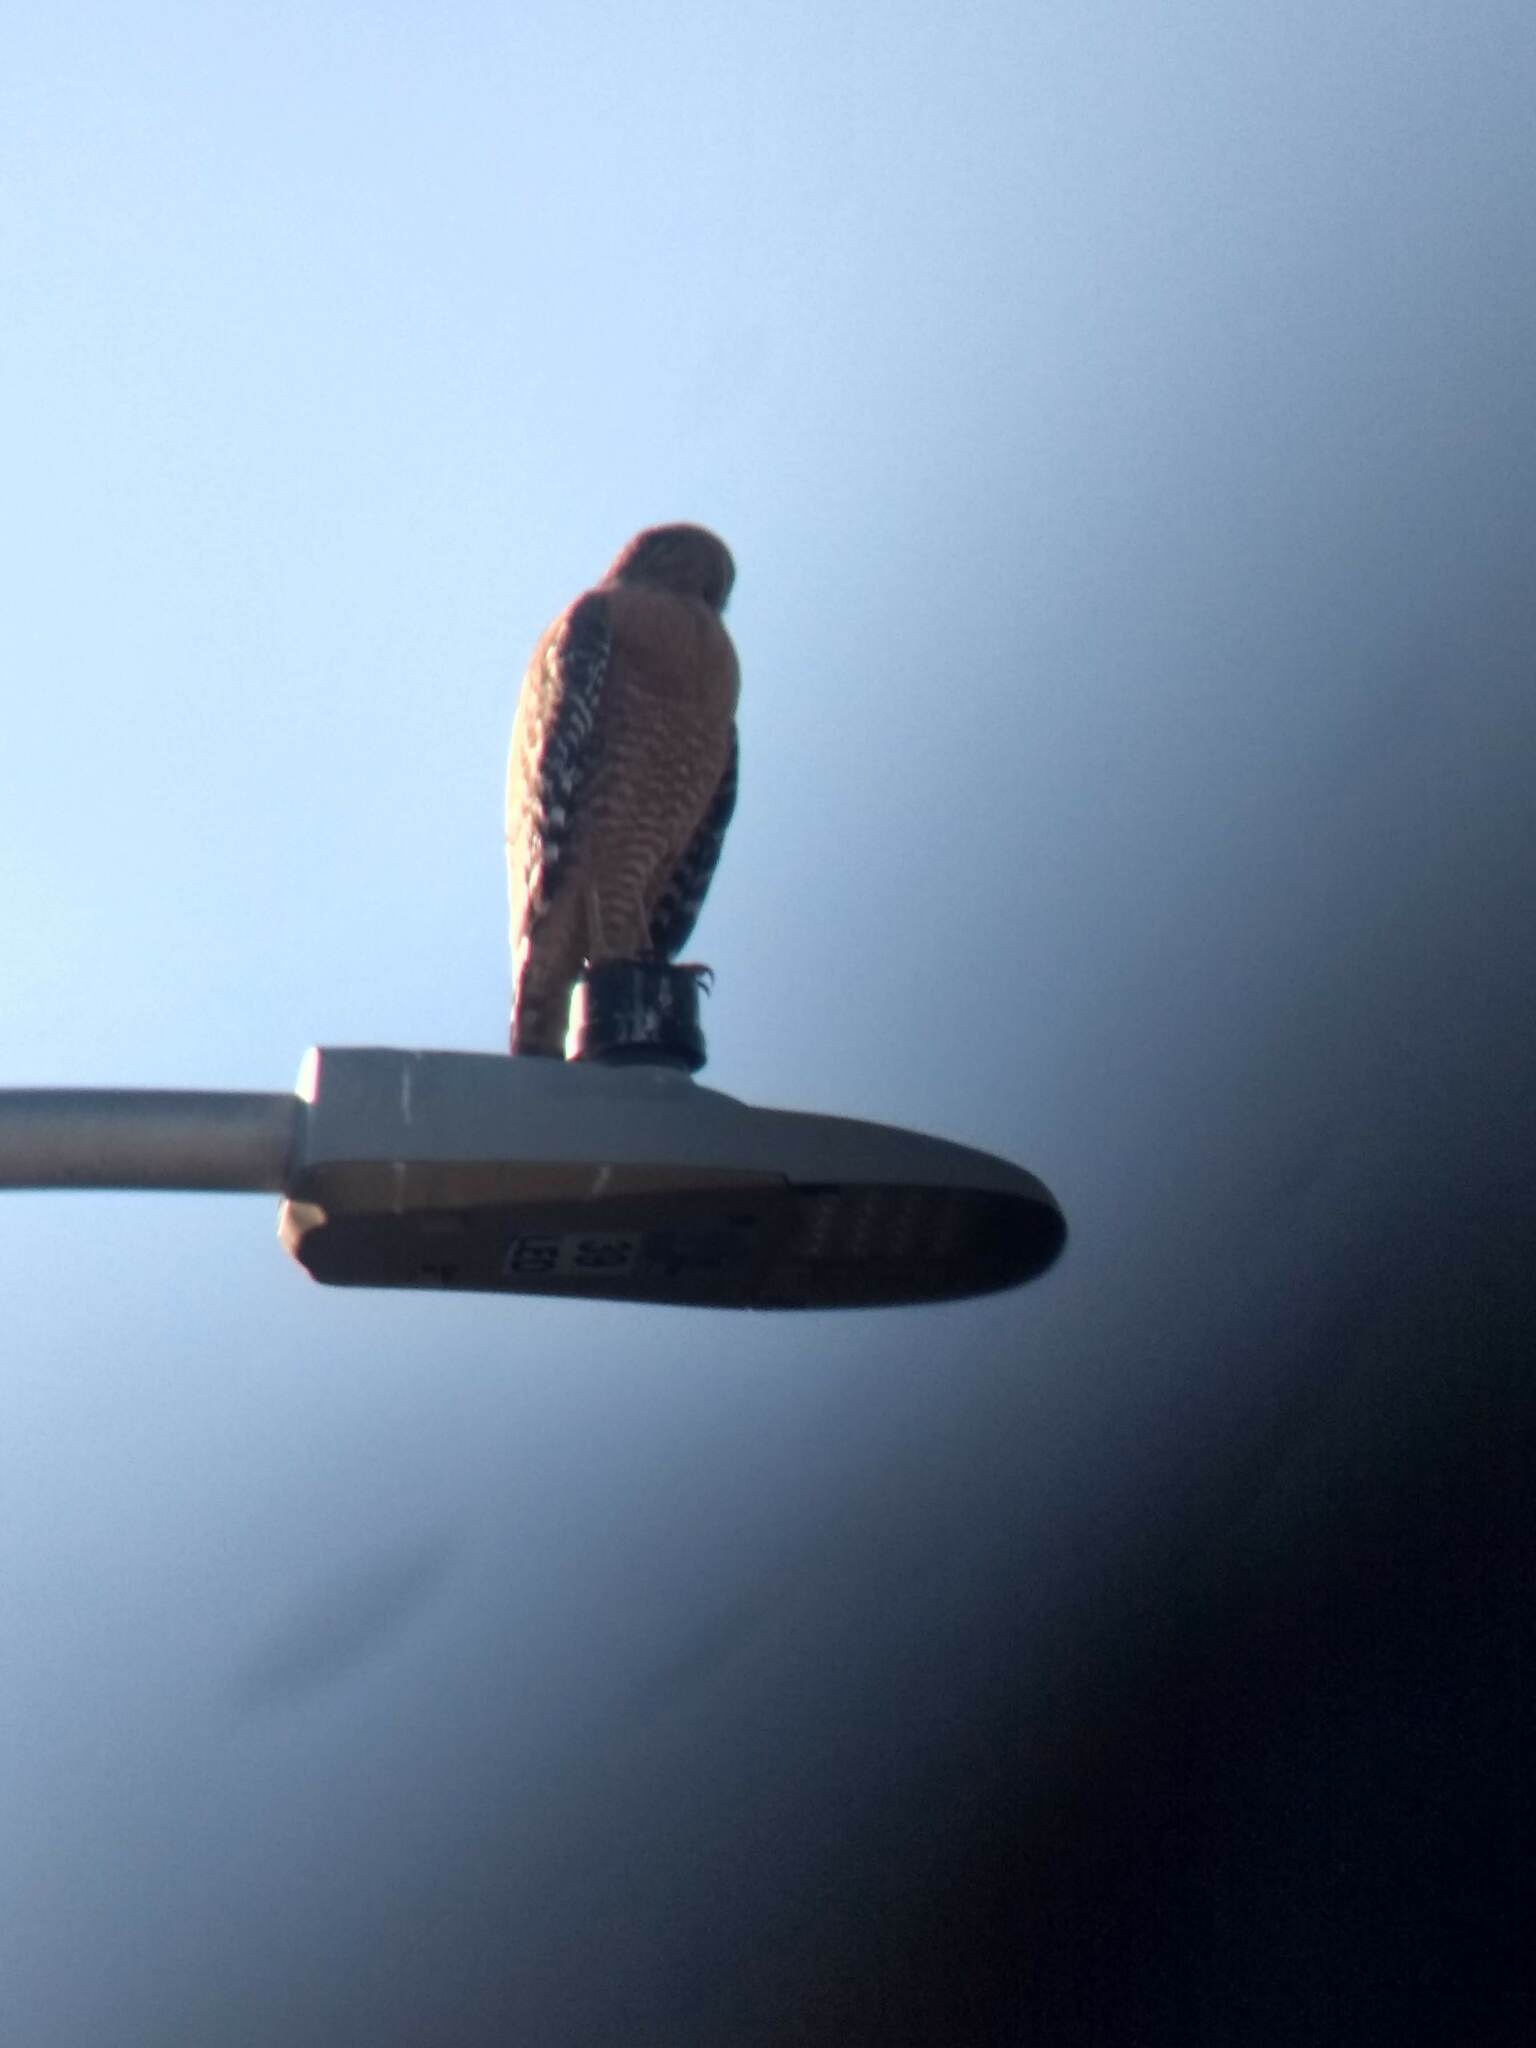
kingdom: Animalia
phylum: Chordata
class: Aves
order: Accipitriformes
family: Accipitridae
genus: Buteo
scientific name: Buteo lineatus
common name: Red-shouldered hawk
